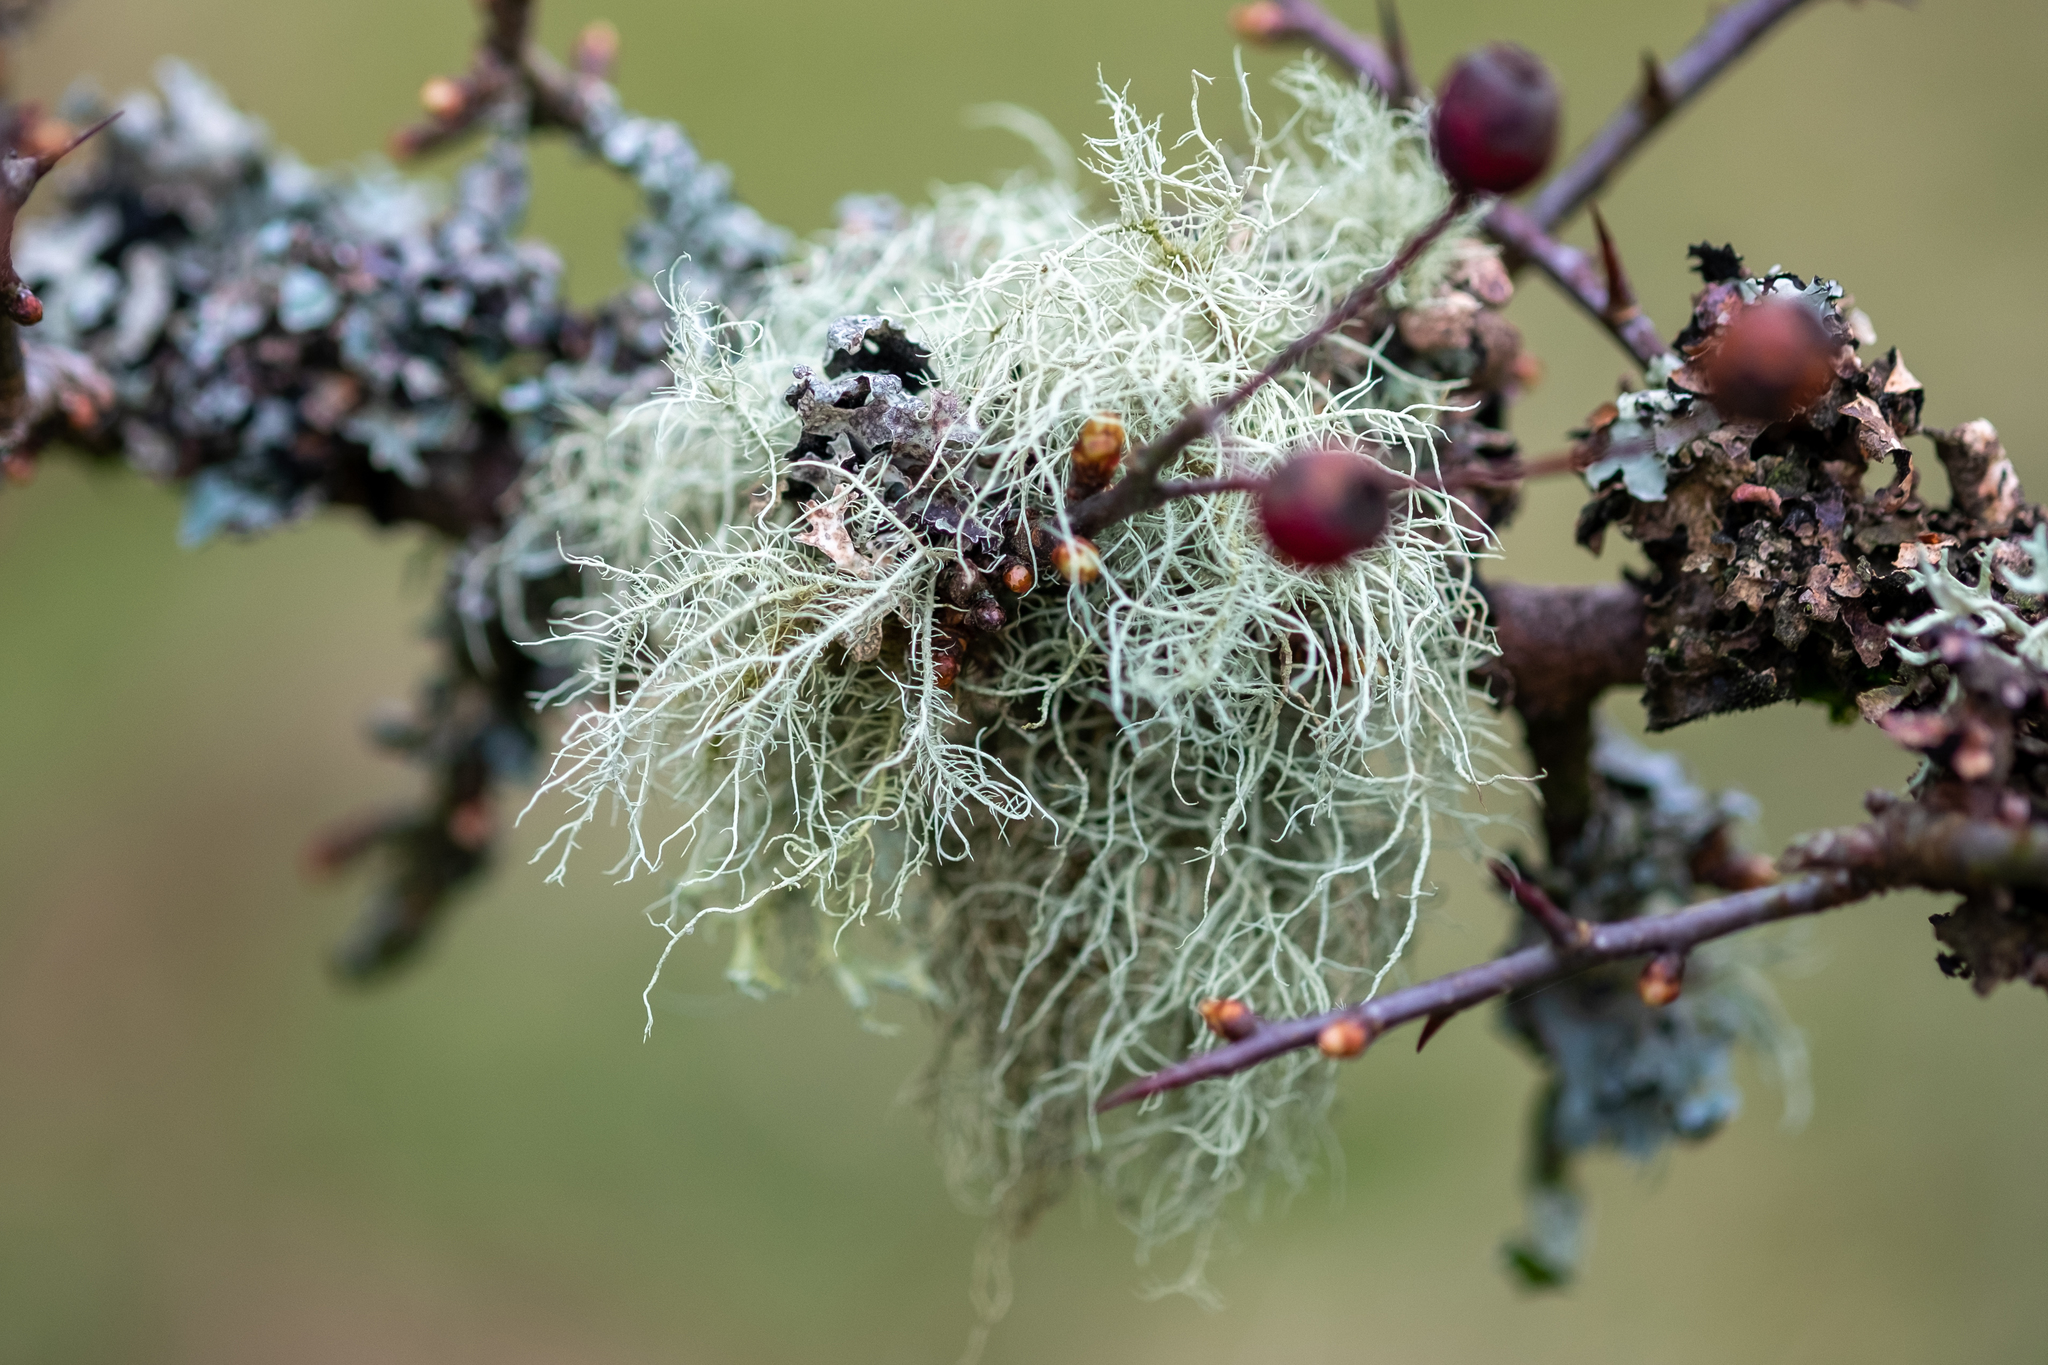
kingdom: Fungi
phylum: Ascomycota
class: Lecanoromycetes
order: Lecanorales
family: Parmeliaceae
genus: Usnea
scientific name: Usnea
